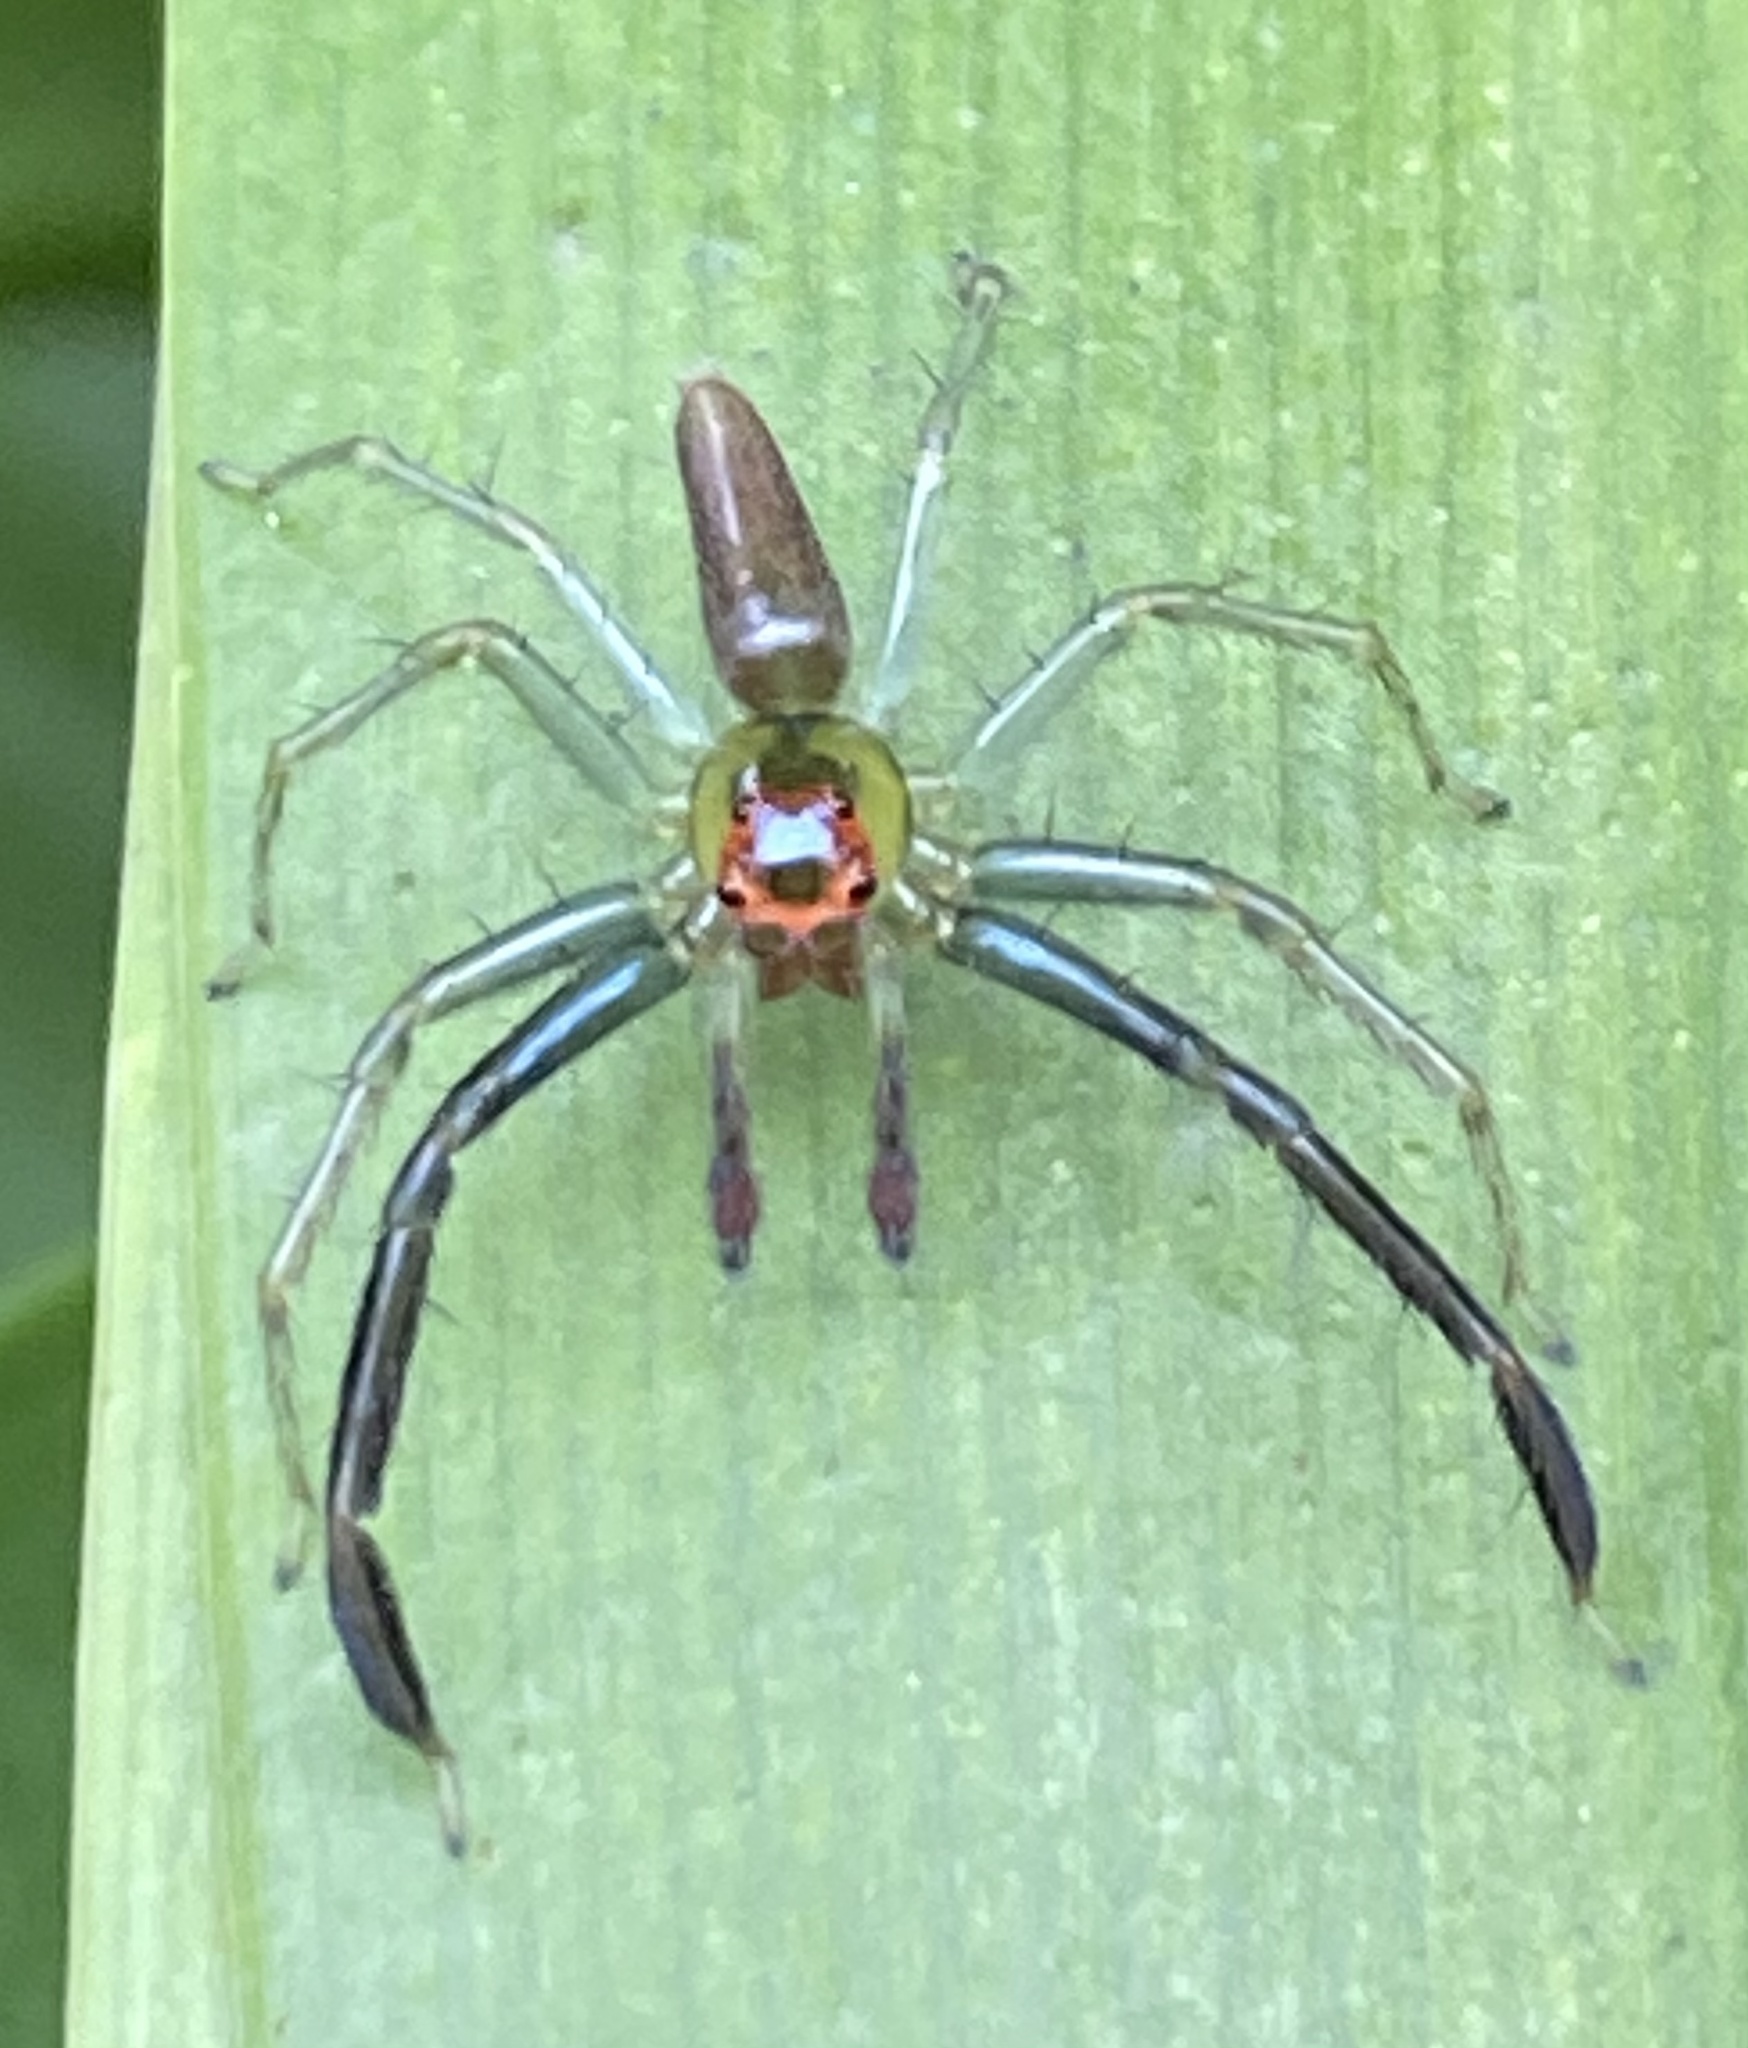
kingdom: Animalia
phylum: Arthropoda
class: Arachnida
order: Araneae
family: Salticidae
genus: Lyssomanes
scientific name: Lyssomanes
